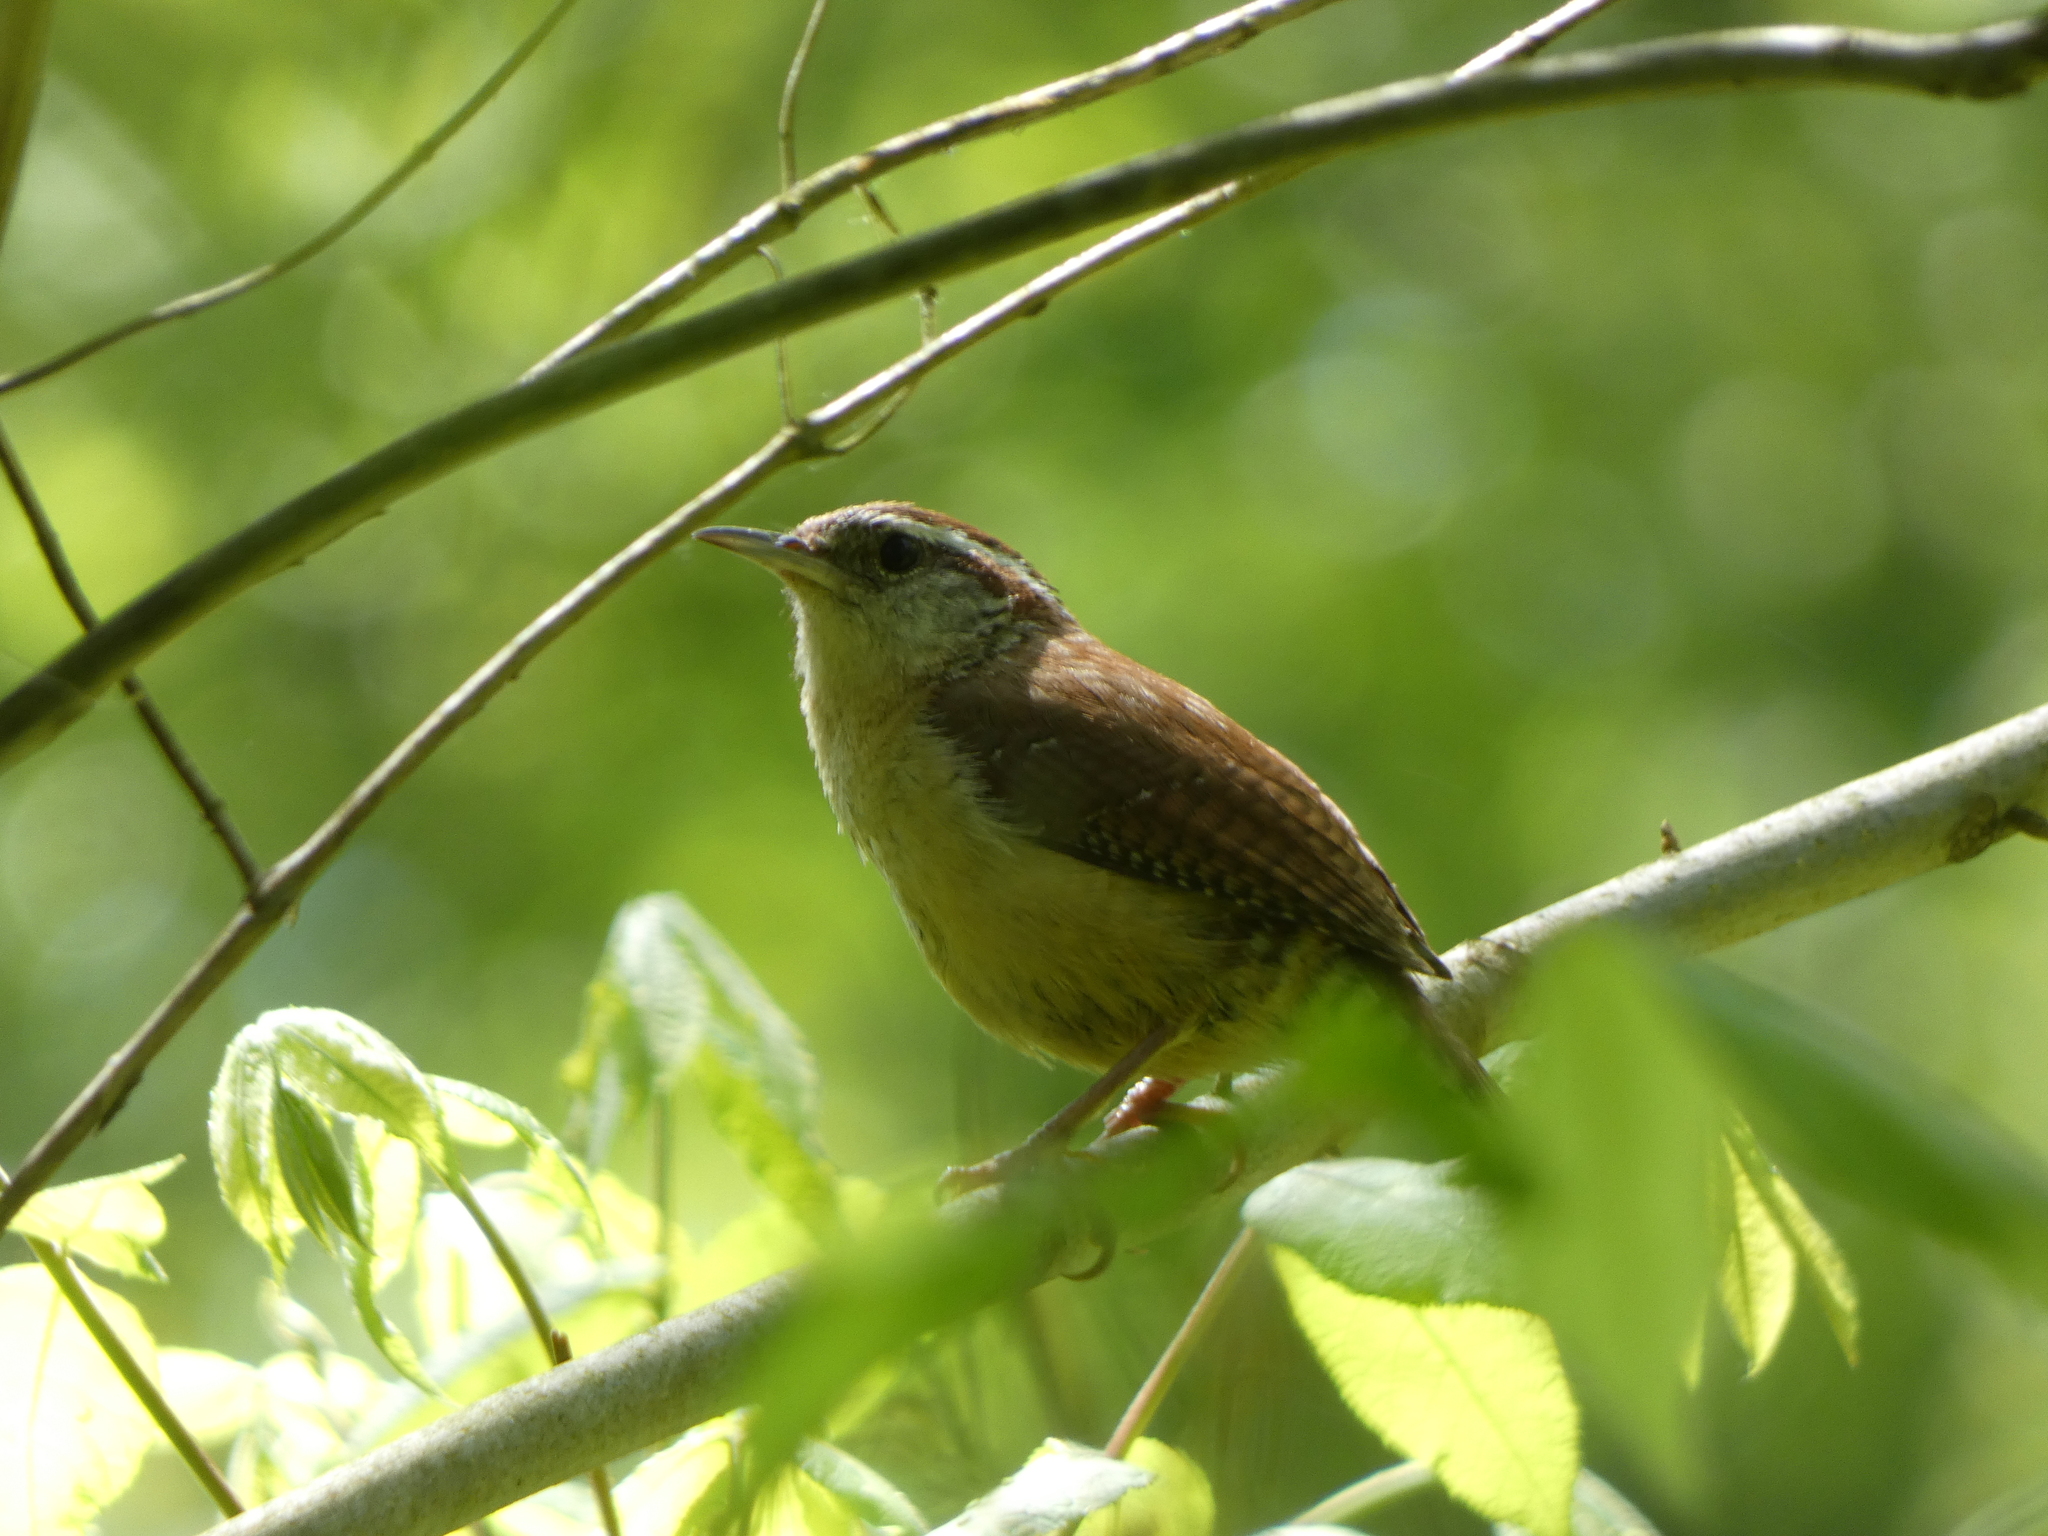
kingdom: Animalia
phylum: Chordata
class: Aves
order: Passeriformes
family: Troglodytidae
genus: Thryothorus
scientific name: Thryothorus ludovicianus
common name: Carolina wren
